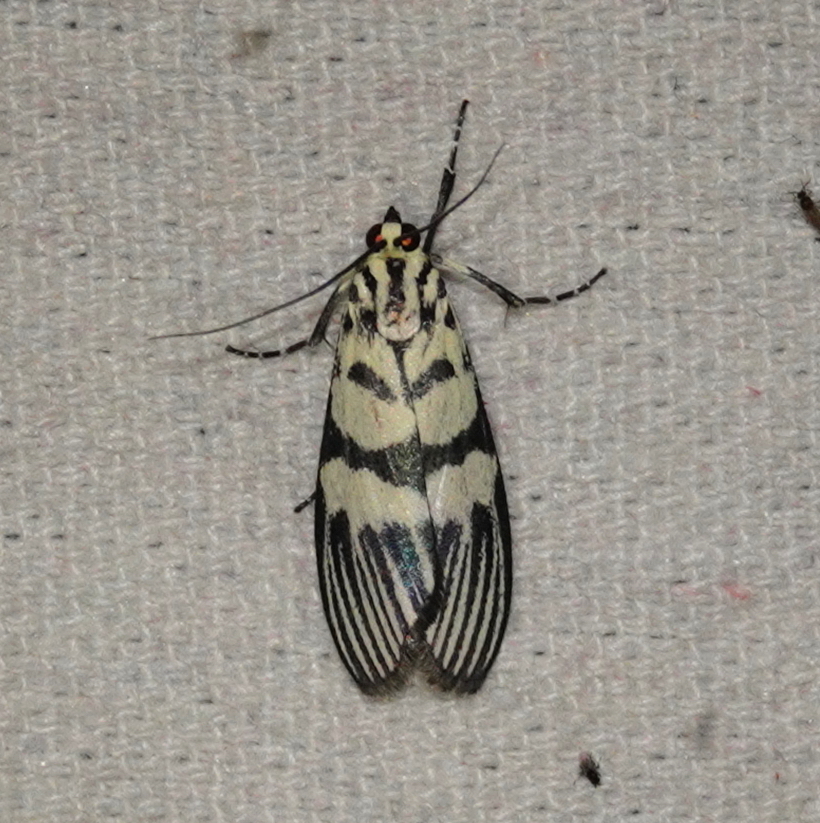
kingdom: Animalia
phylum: Arthropoda
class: Insecta
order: Lepidoptera
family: Crambidae
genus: Heortia
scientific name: Heortia vitessoides
